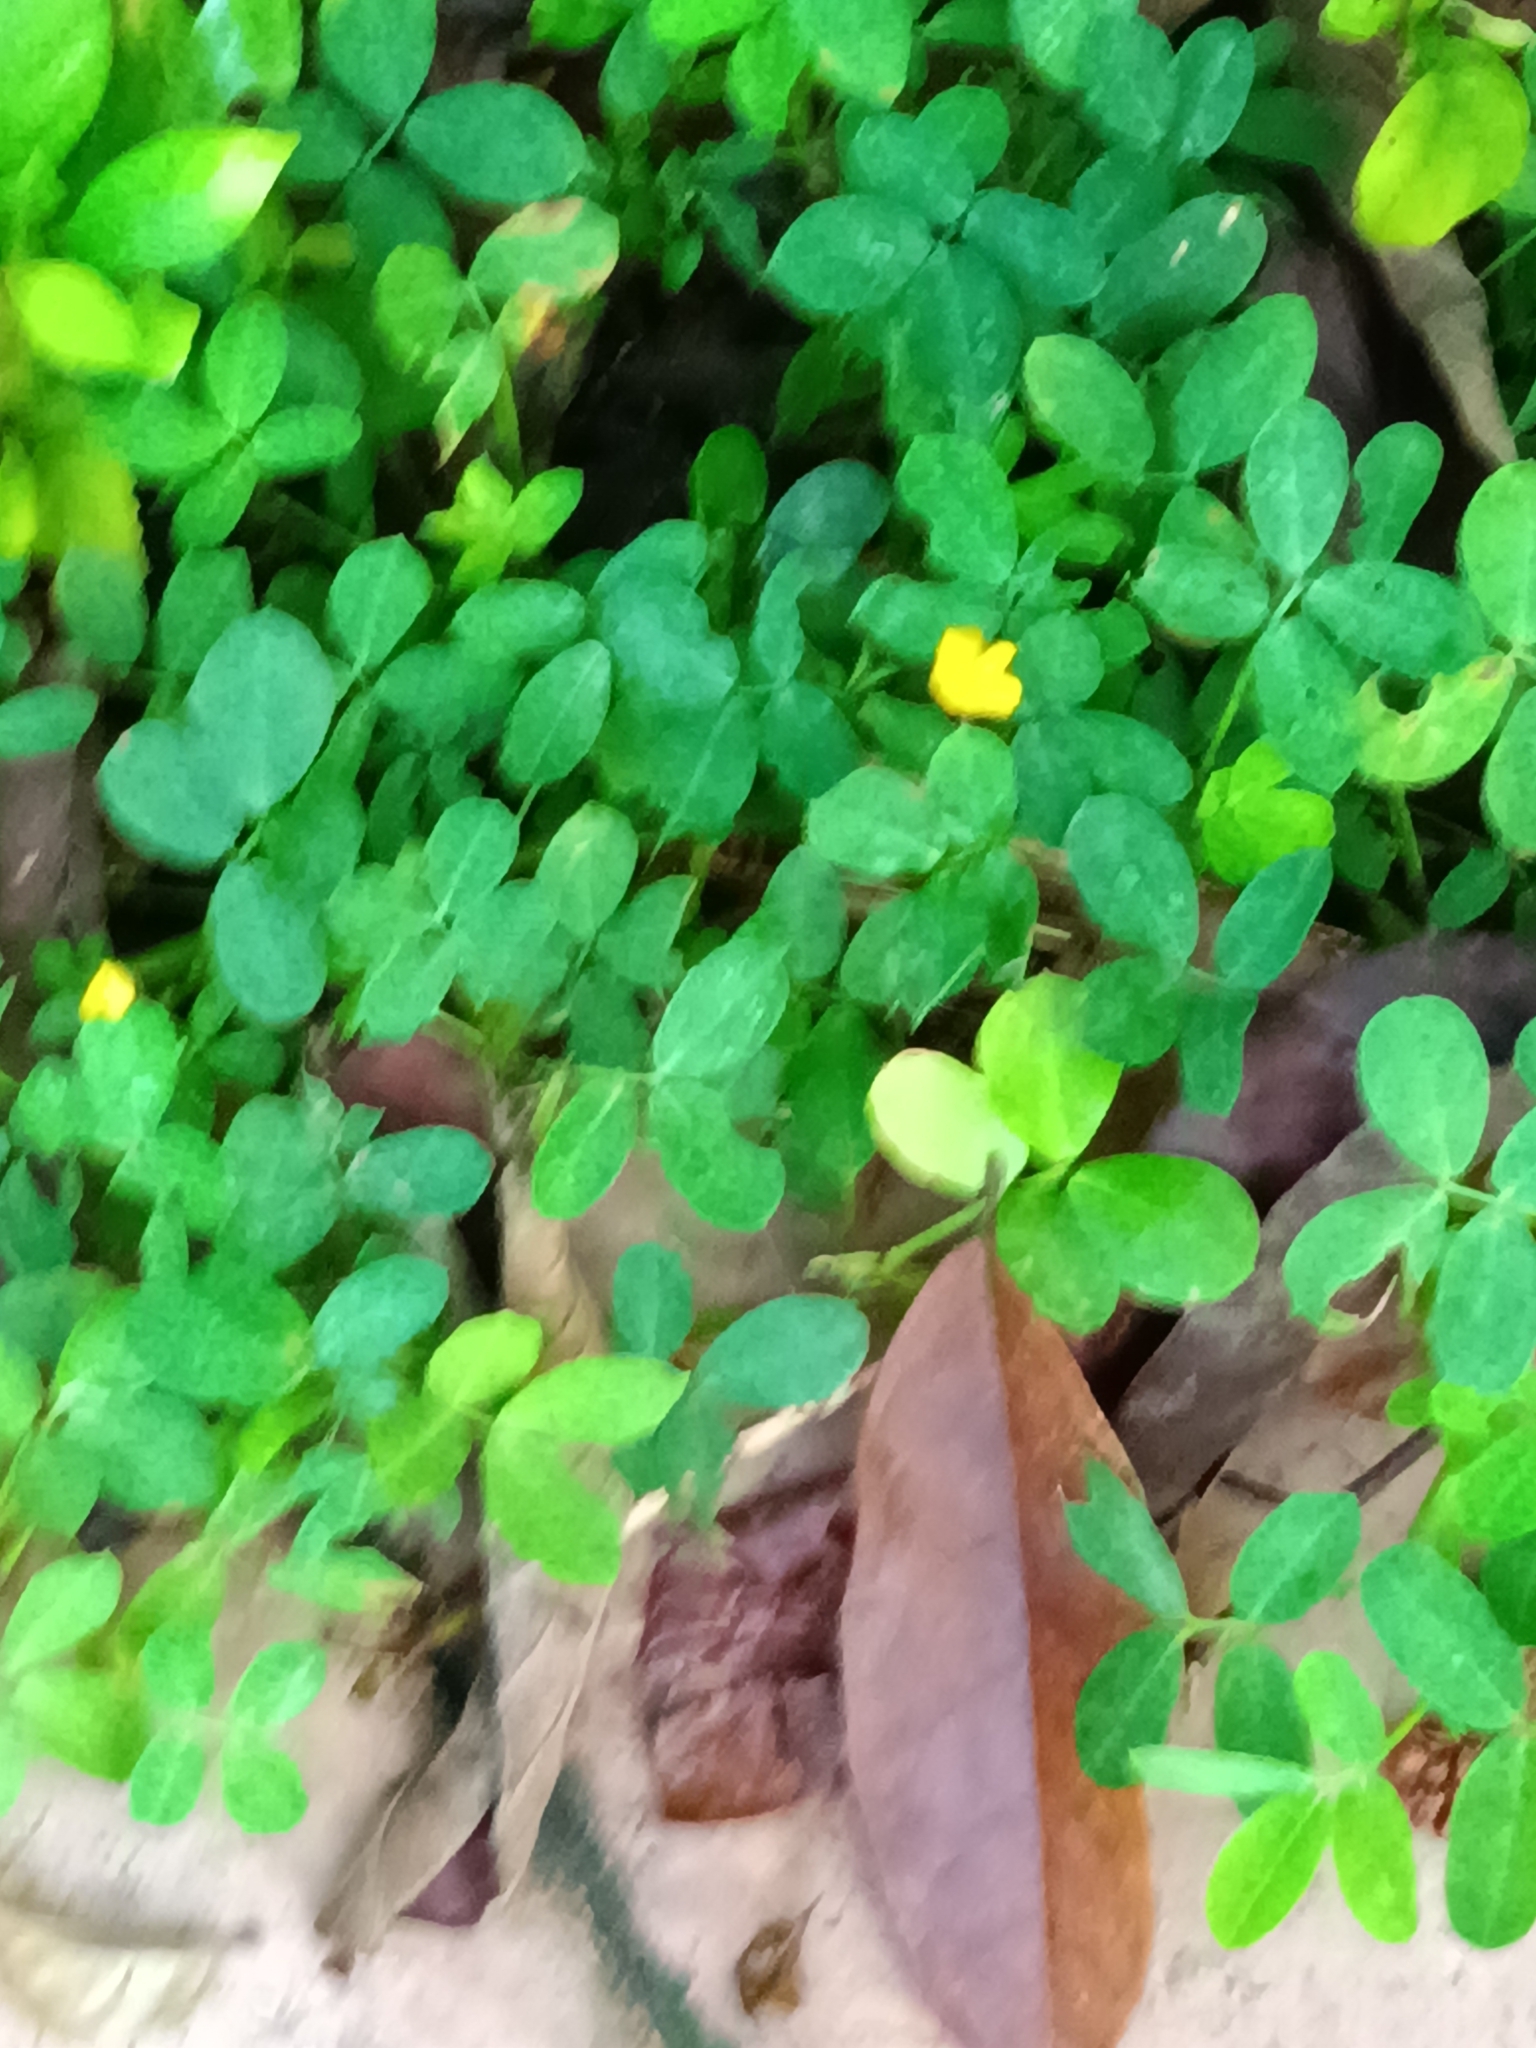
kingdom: Plantae
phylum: Tracheophyta
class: Magnoliopsida
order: Fabales
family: Fabaceae
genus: Arachis
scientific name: Arachis pintoi
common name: Pinto peanut
